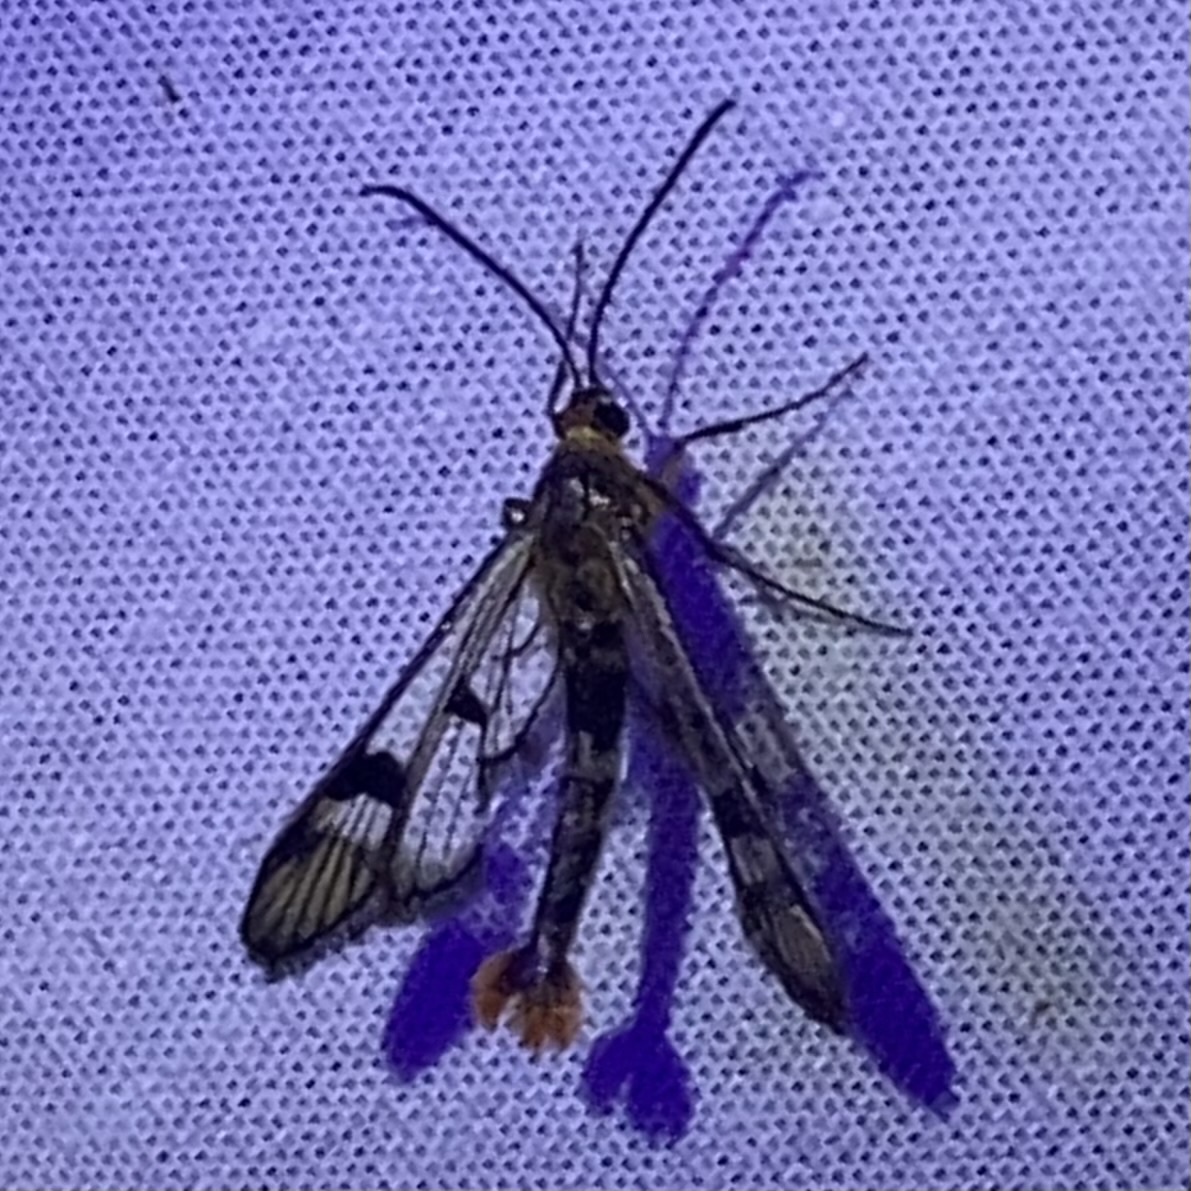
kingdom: Animalia
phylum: Arthropoda
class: Insecta
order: Lepidoptera
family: Sesiidae
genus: Synanthedon
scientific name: Synanthedon acerni
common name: Maple callus borer moth
